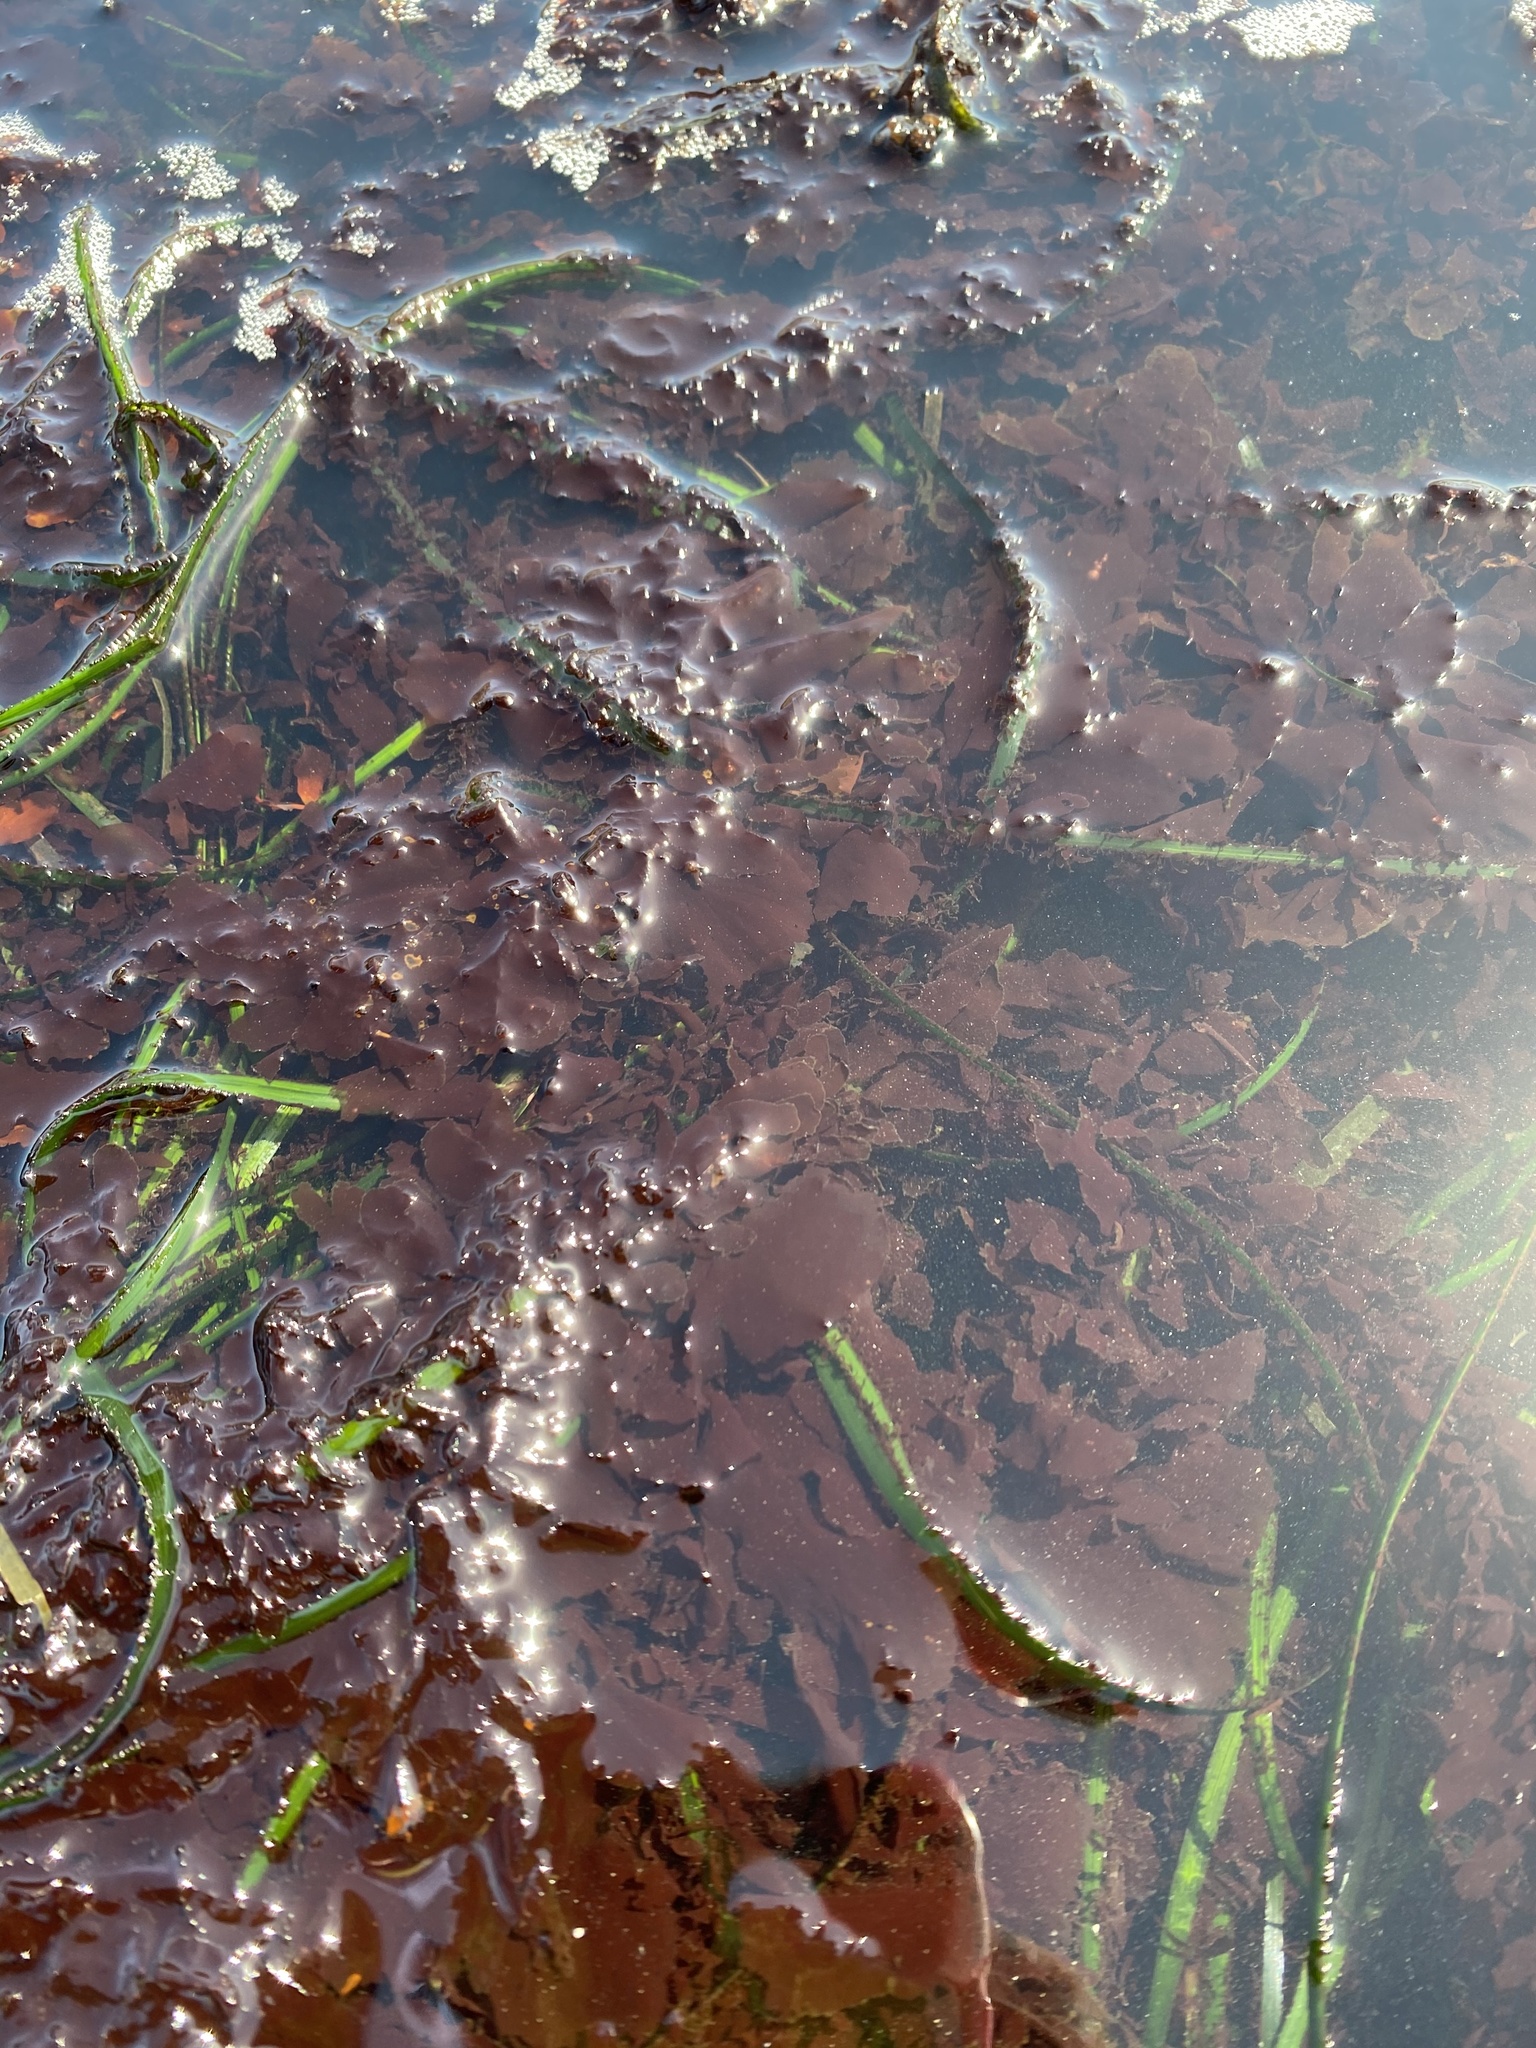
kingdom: Plantae
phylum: Rhodophyta
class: Compsopogonophyceae
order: Erythropeltidales
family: Erythrotrichiaceae
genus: Smithora
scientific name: Smithora naiadum
